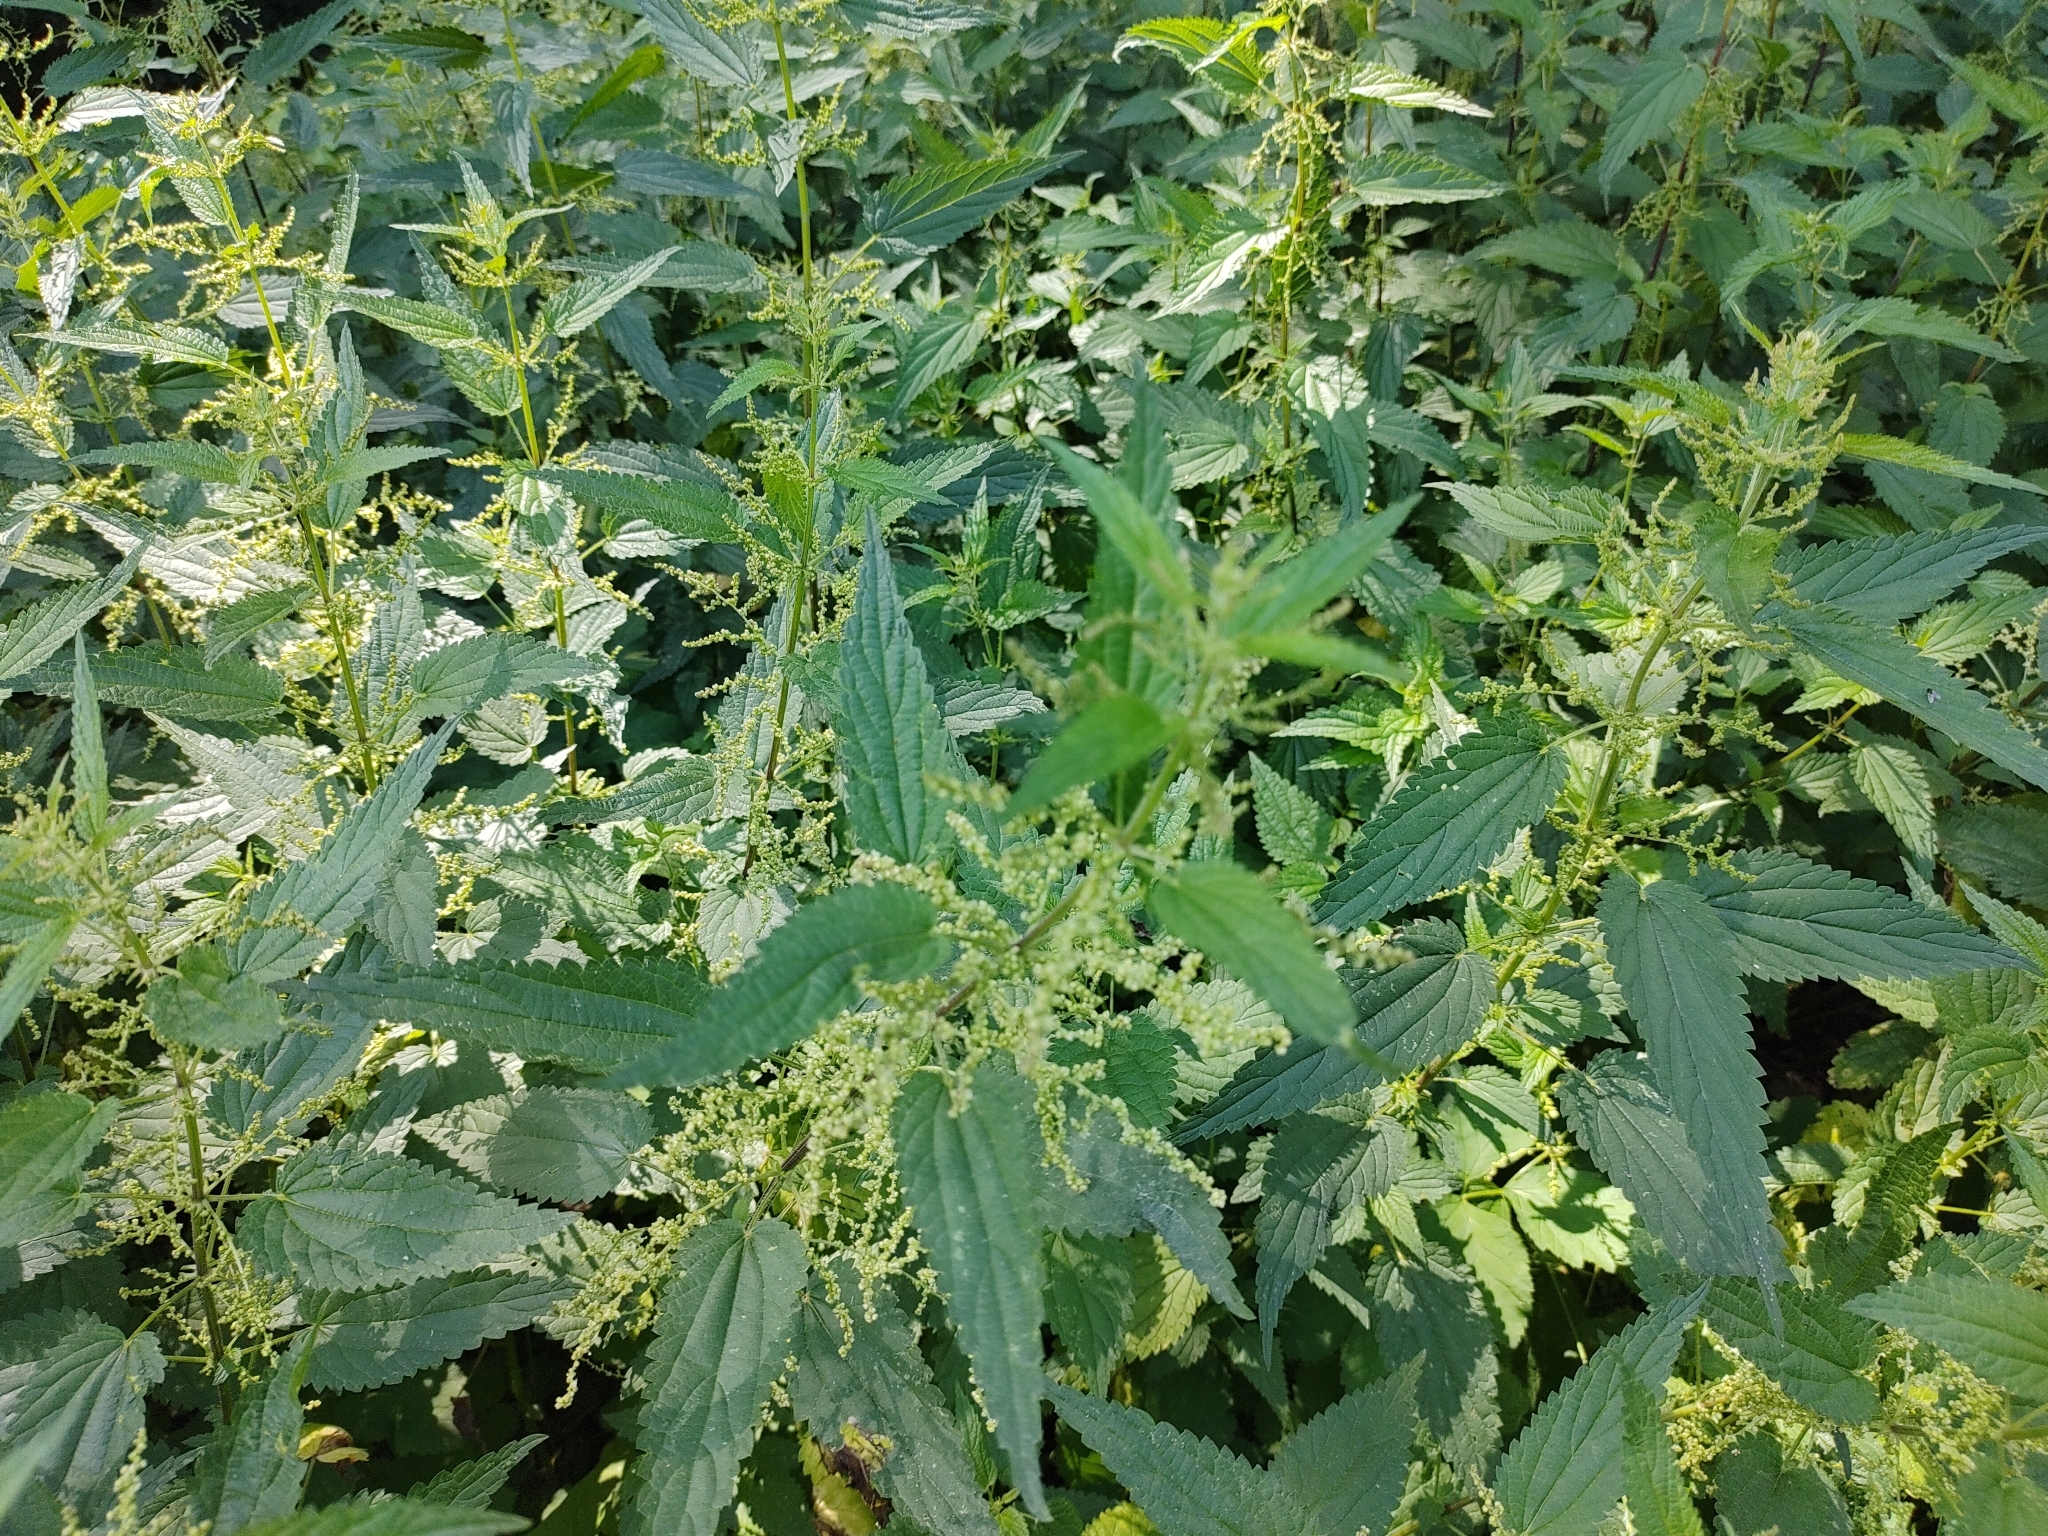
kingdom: Plantae
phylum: Tracheophyta
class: Magnoliopsida
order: Rosales
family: Urticaceae
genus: Urtica
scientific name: Urtica dioica
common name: Common nettle
